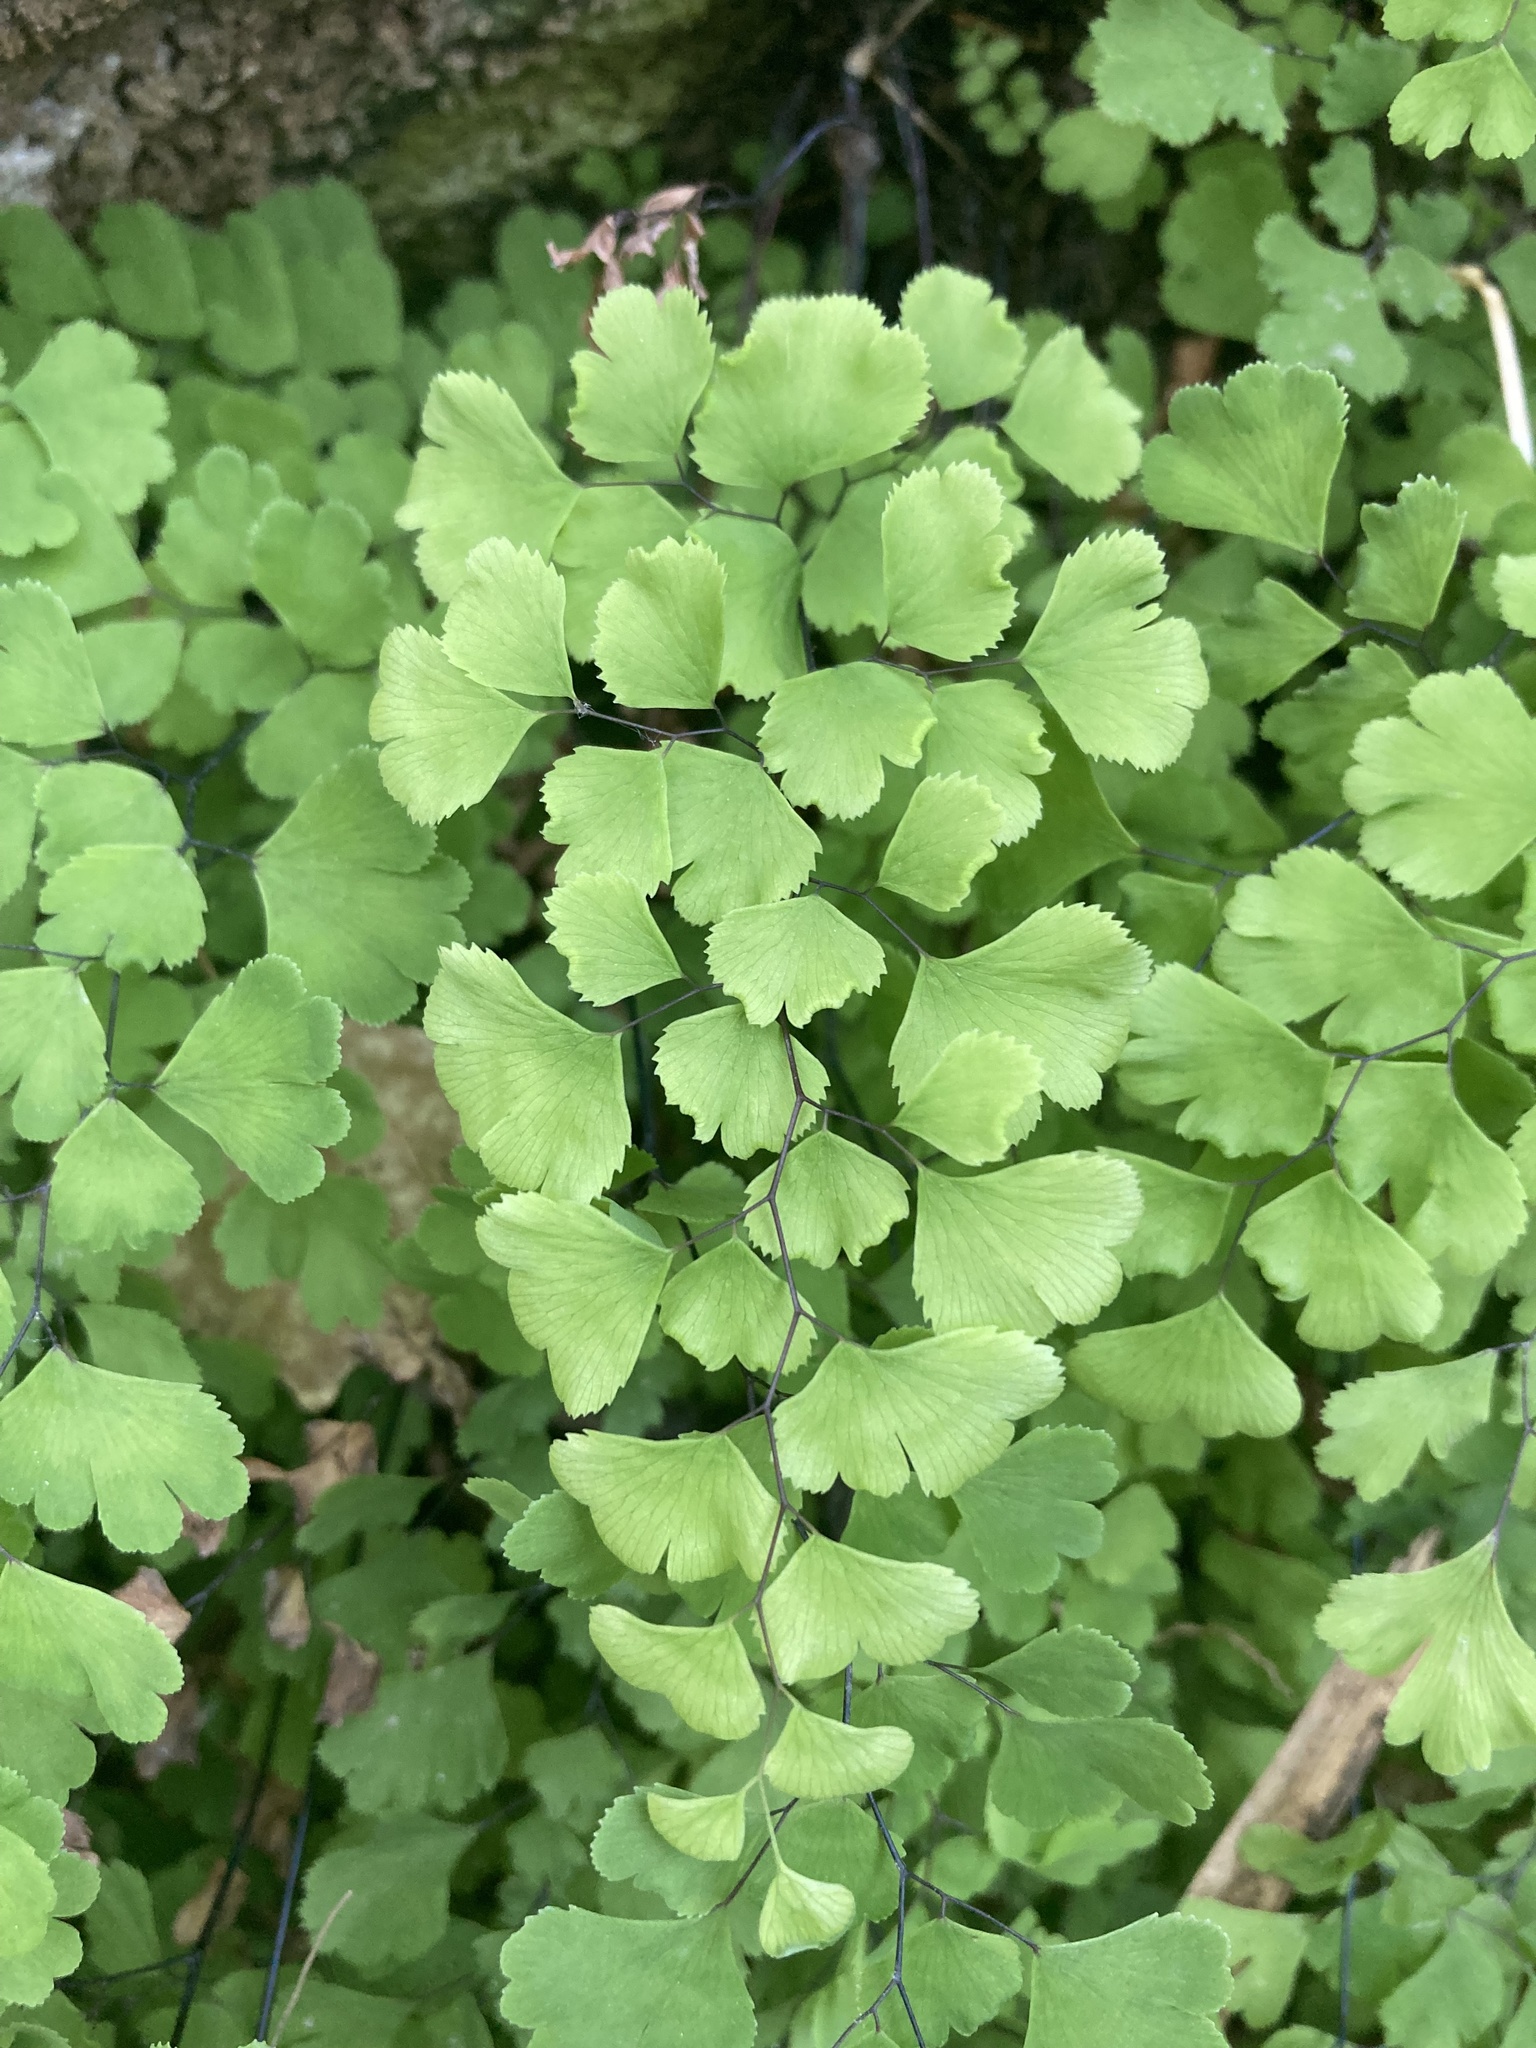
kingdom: Plantae
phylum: Tracheophyta
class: Polypodiopsida
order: Polypodiales
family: Pteridaceae
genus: Adiantum
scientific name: Adiantum capillus-veneris
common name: Maidenhair fern
